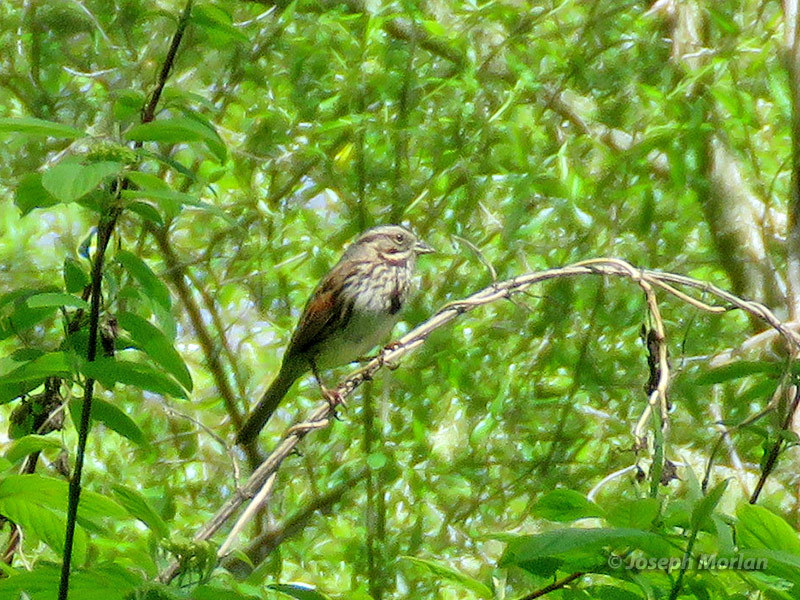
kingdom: Animalia
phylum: Chordata
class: Aves
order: Passeriformes
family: Passerellidae
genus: Melospiza
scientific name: Melospiza melodia
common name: Song sparrow
